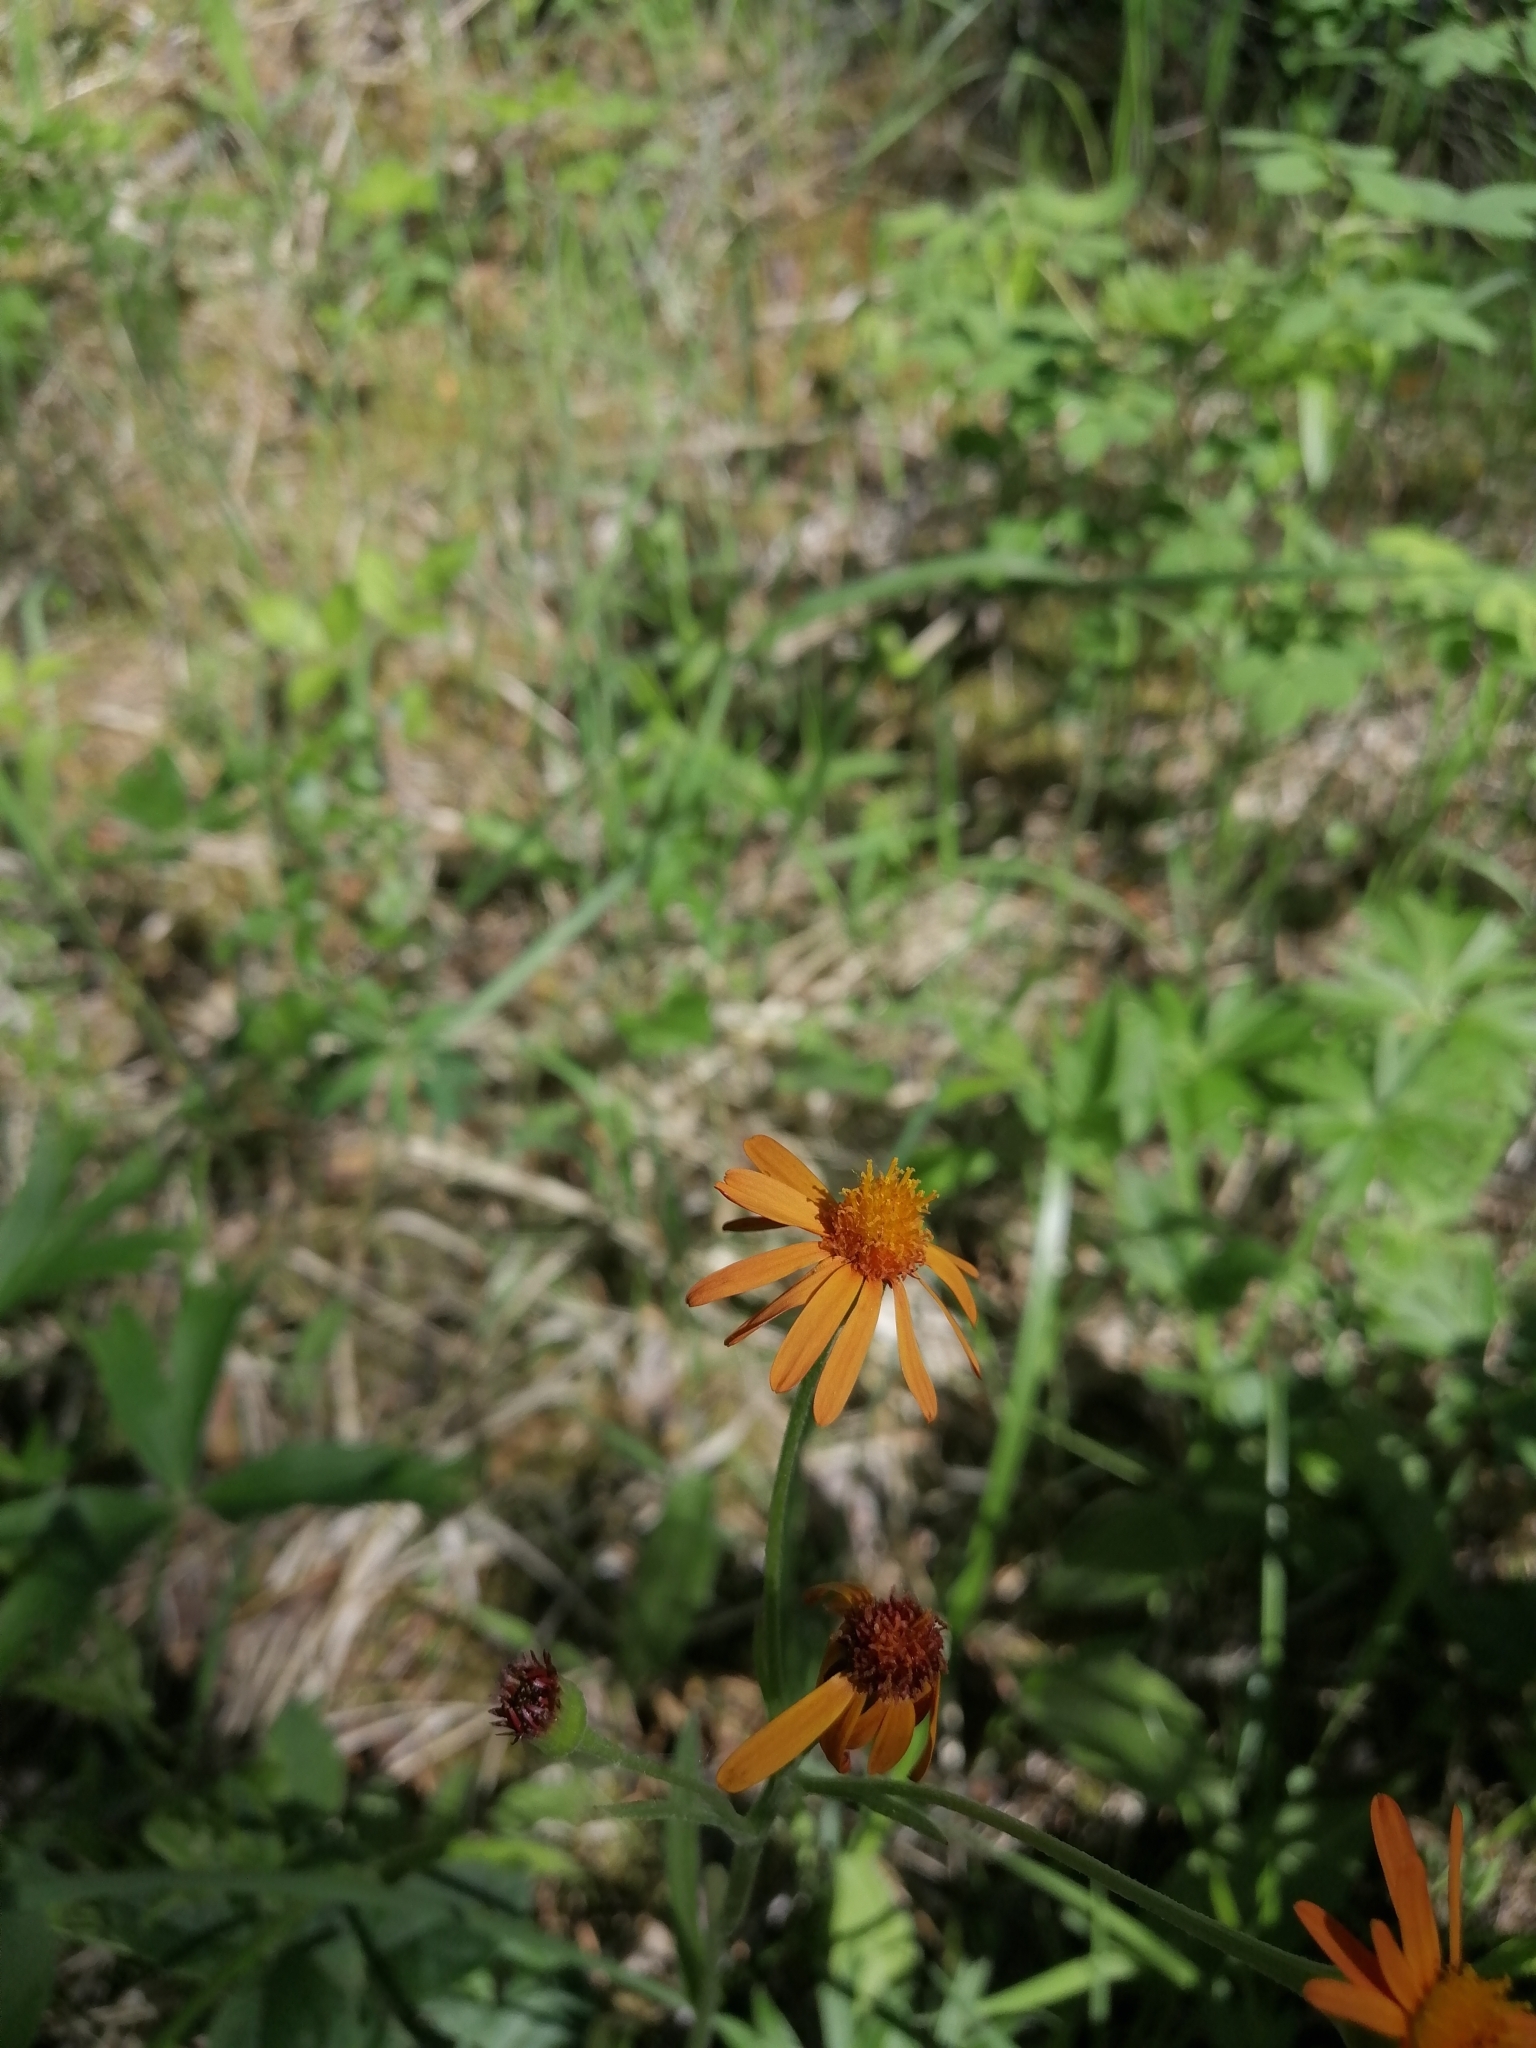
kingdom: Plantae
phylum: Tracheophyta
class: Magnoliopsida
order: Asterales
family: Asteraceae
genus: Tephroseris
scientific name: Tephroseris porphyrantha
